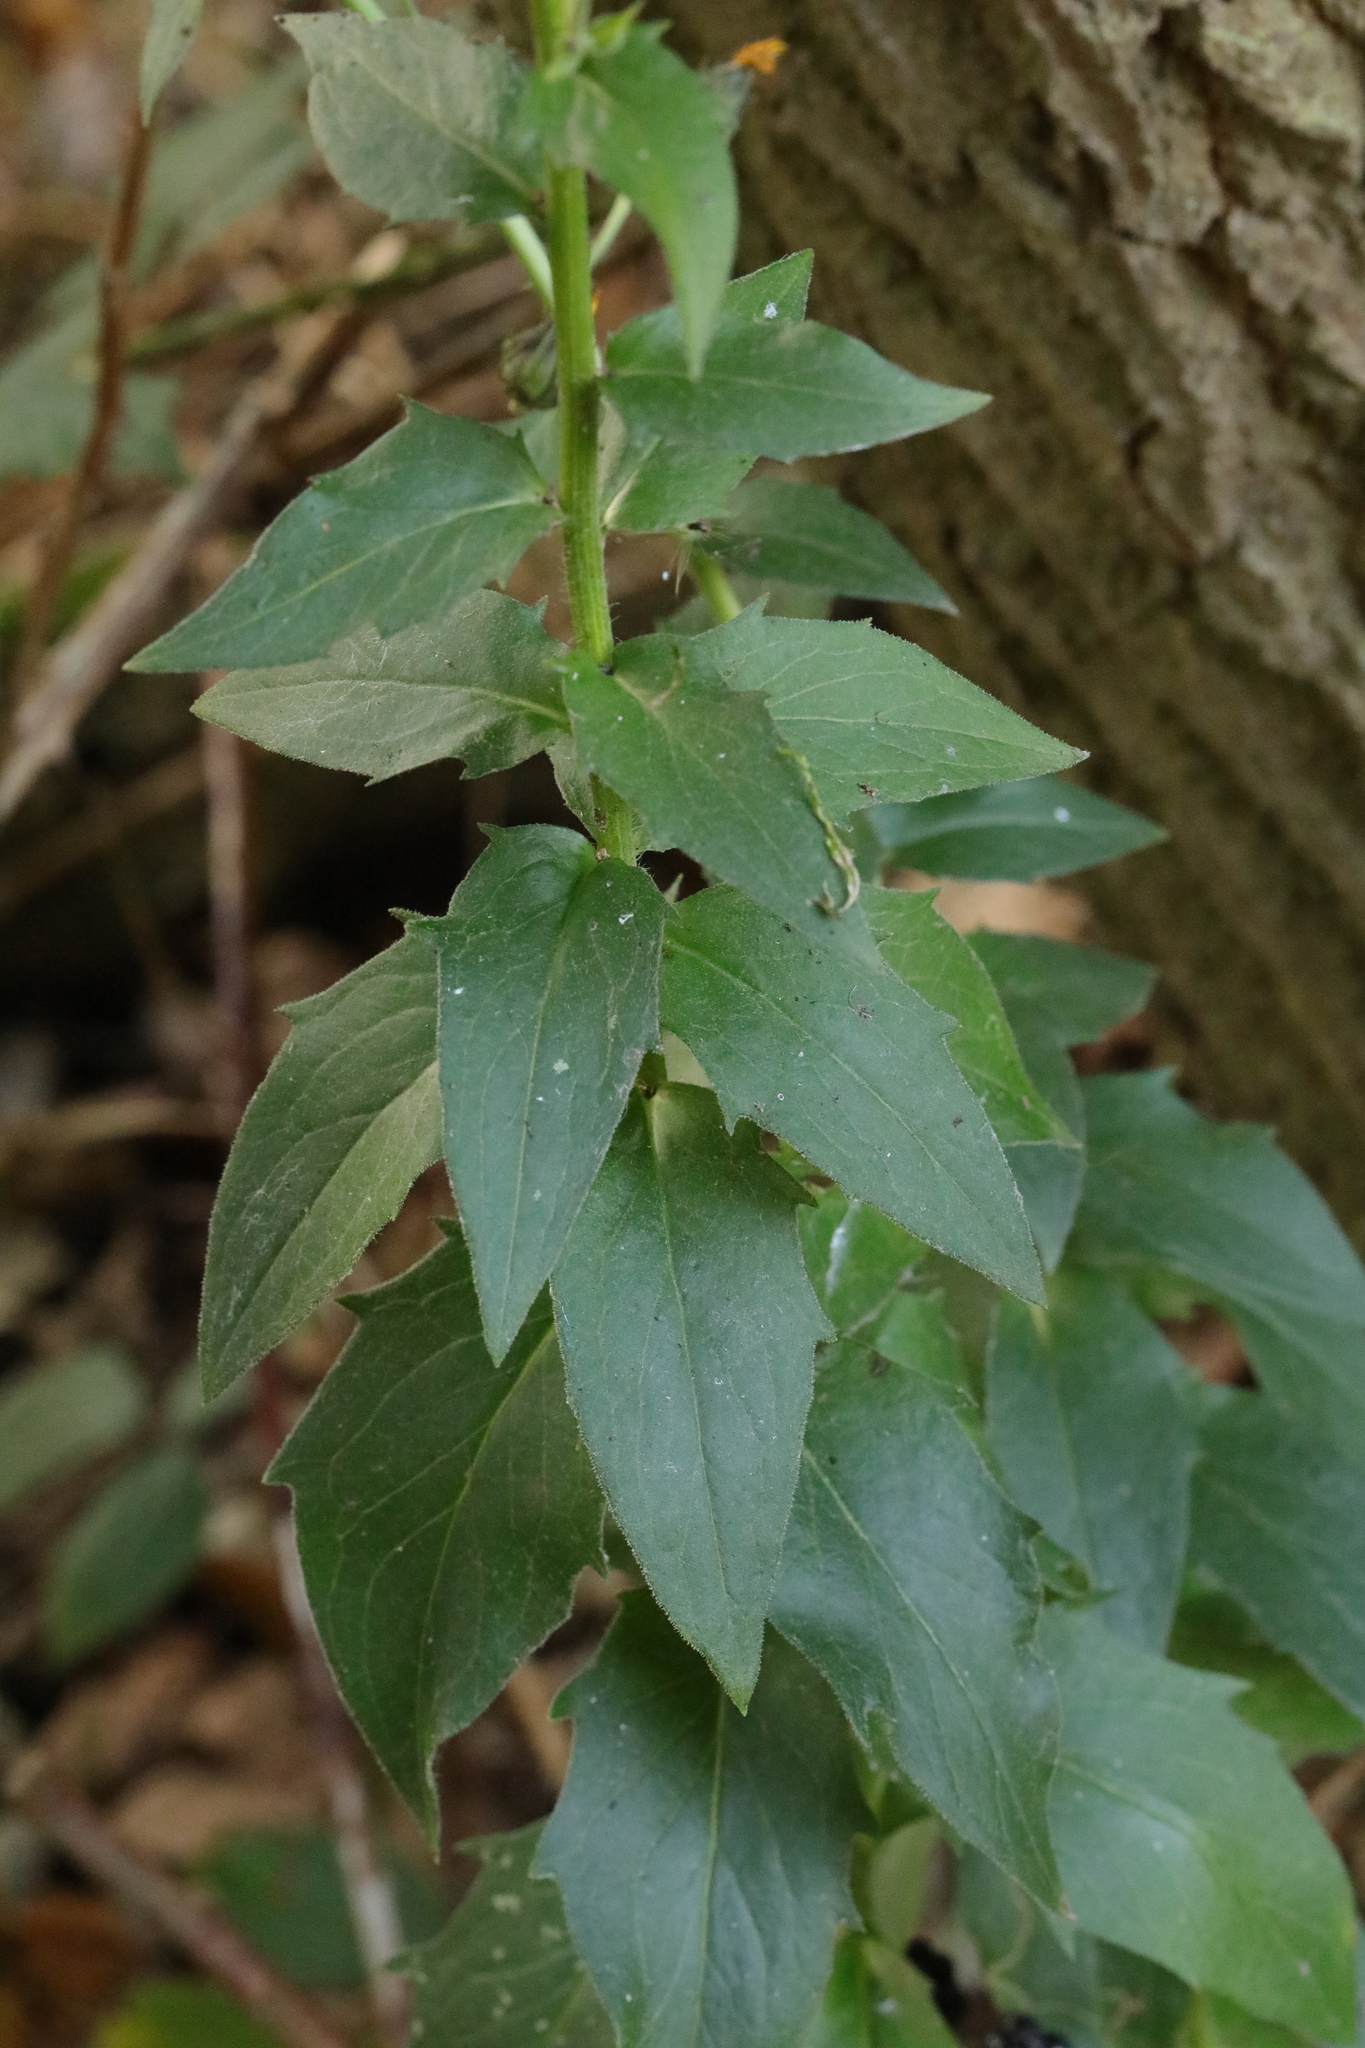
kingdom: Plantae
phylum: Tracheophyta
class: Magnoliopsida
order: Asterales
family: Asteraceae
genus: Hieracium
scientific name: Hieracium sabaudum
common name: New england hawkweed
